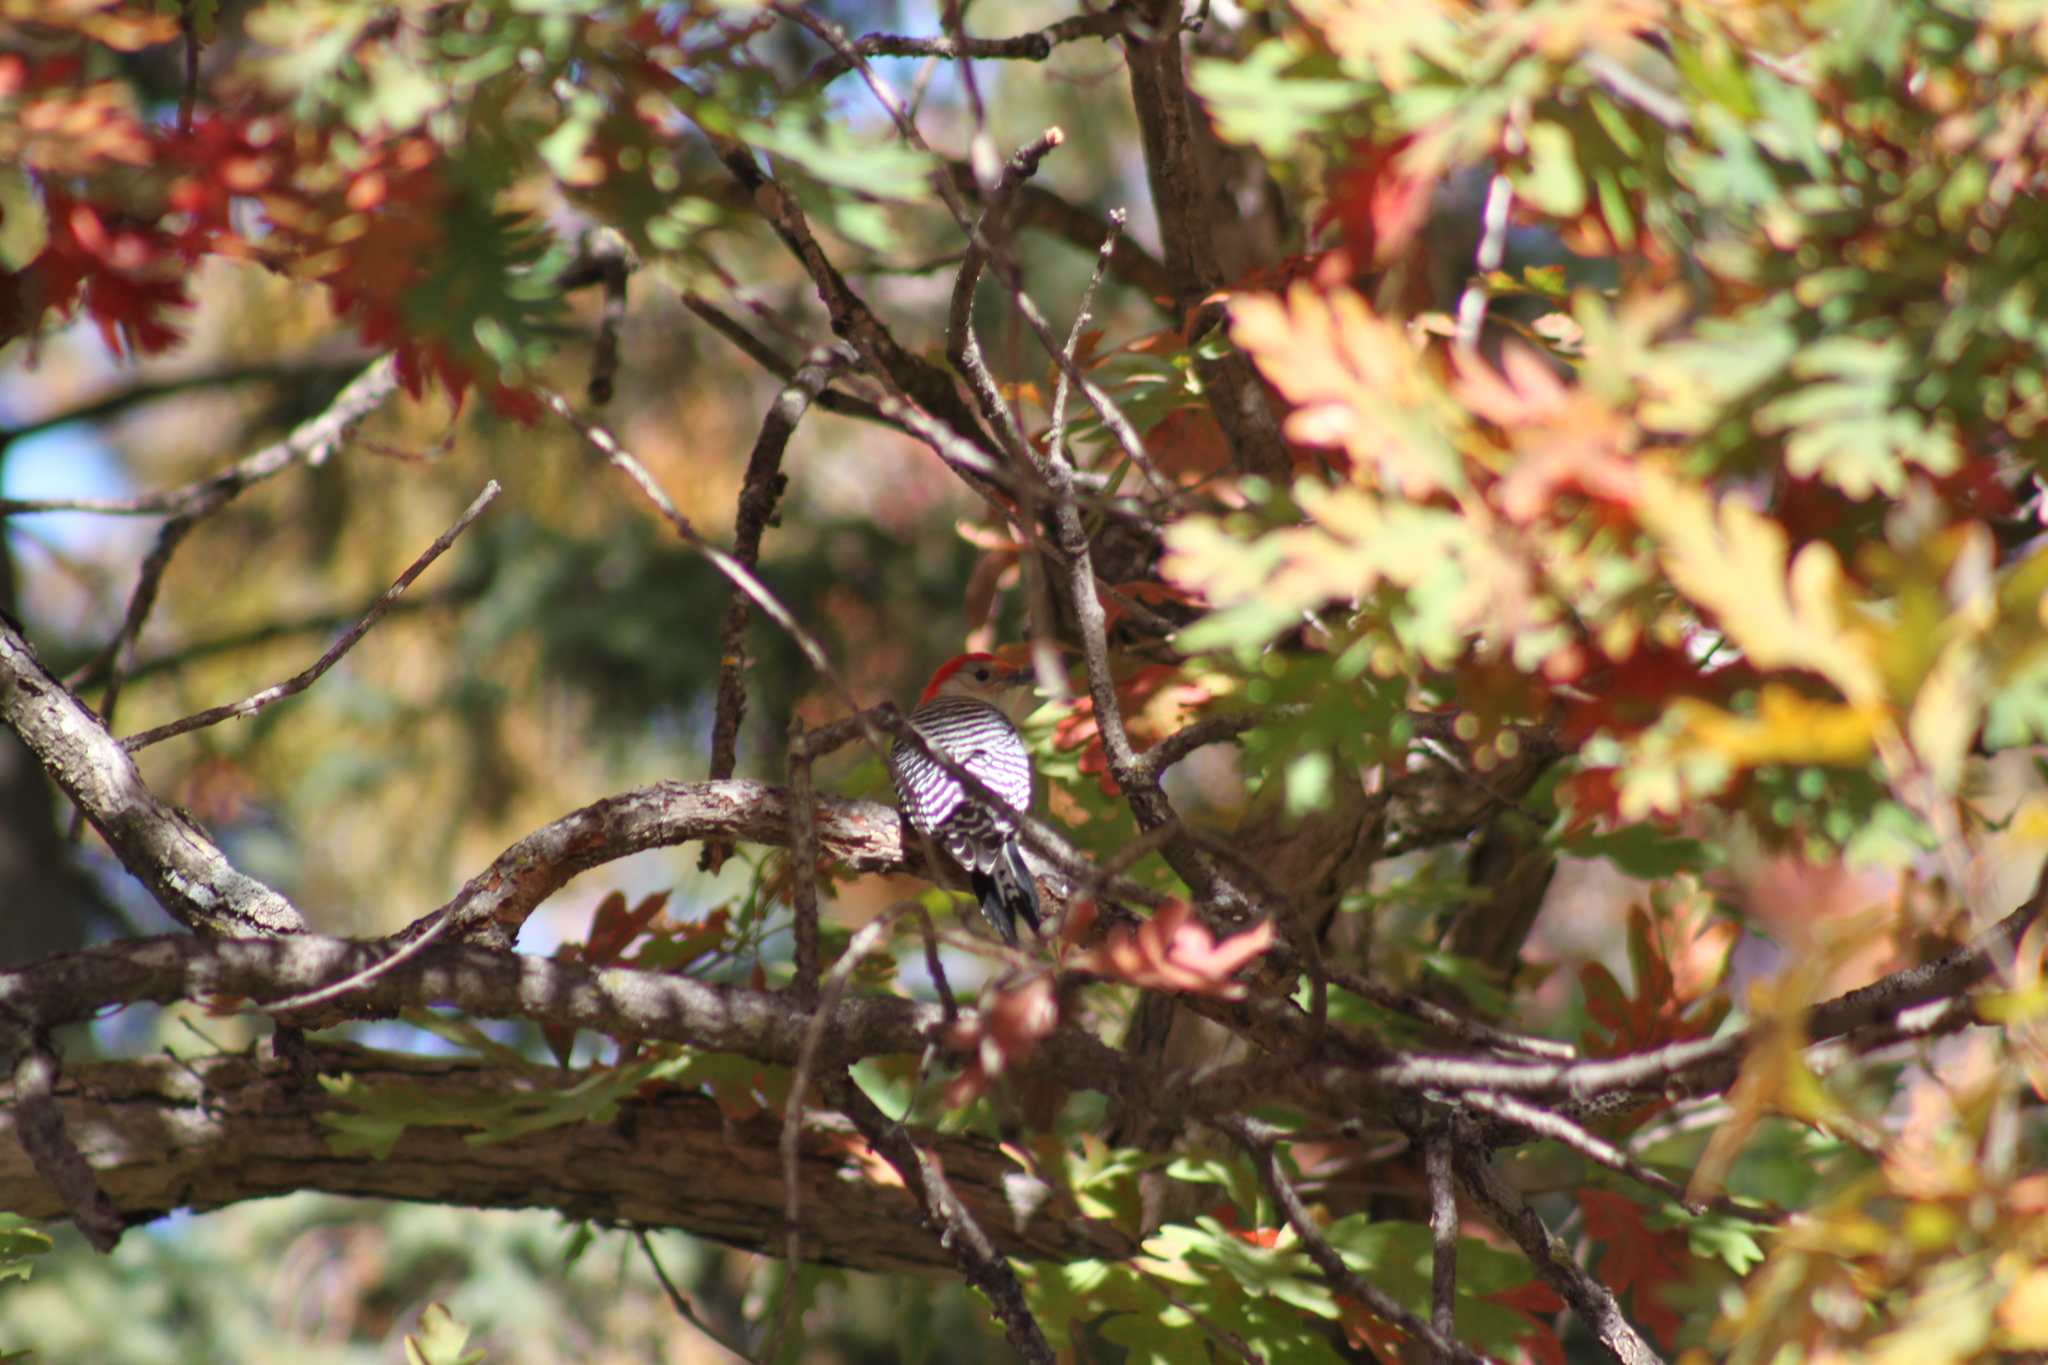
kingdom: Animalia
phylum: Chordata
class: Aves
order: Piciformes
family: Picidae
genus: Melanerpes
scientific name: Melanerpes carolinus
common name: Red-bellied woodpecker
